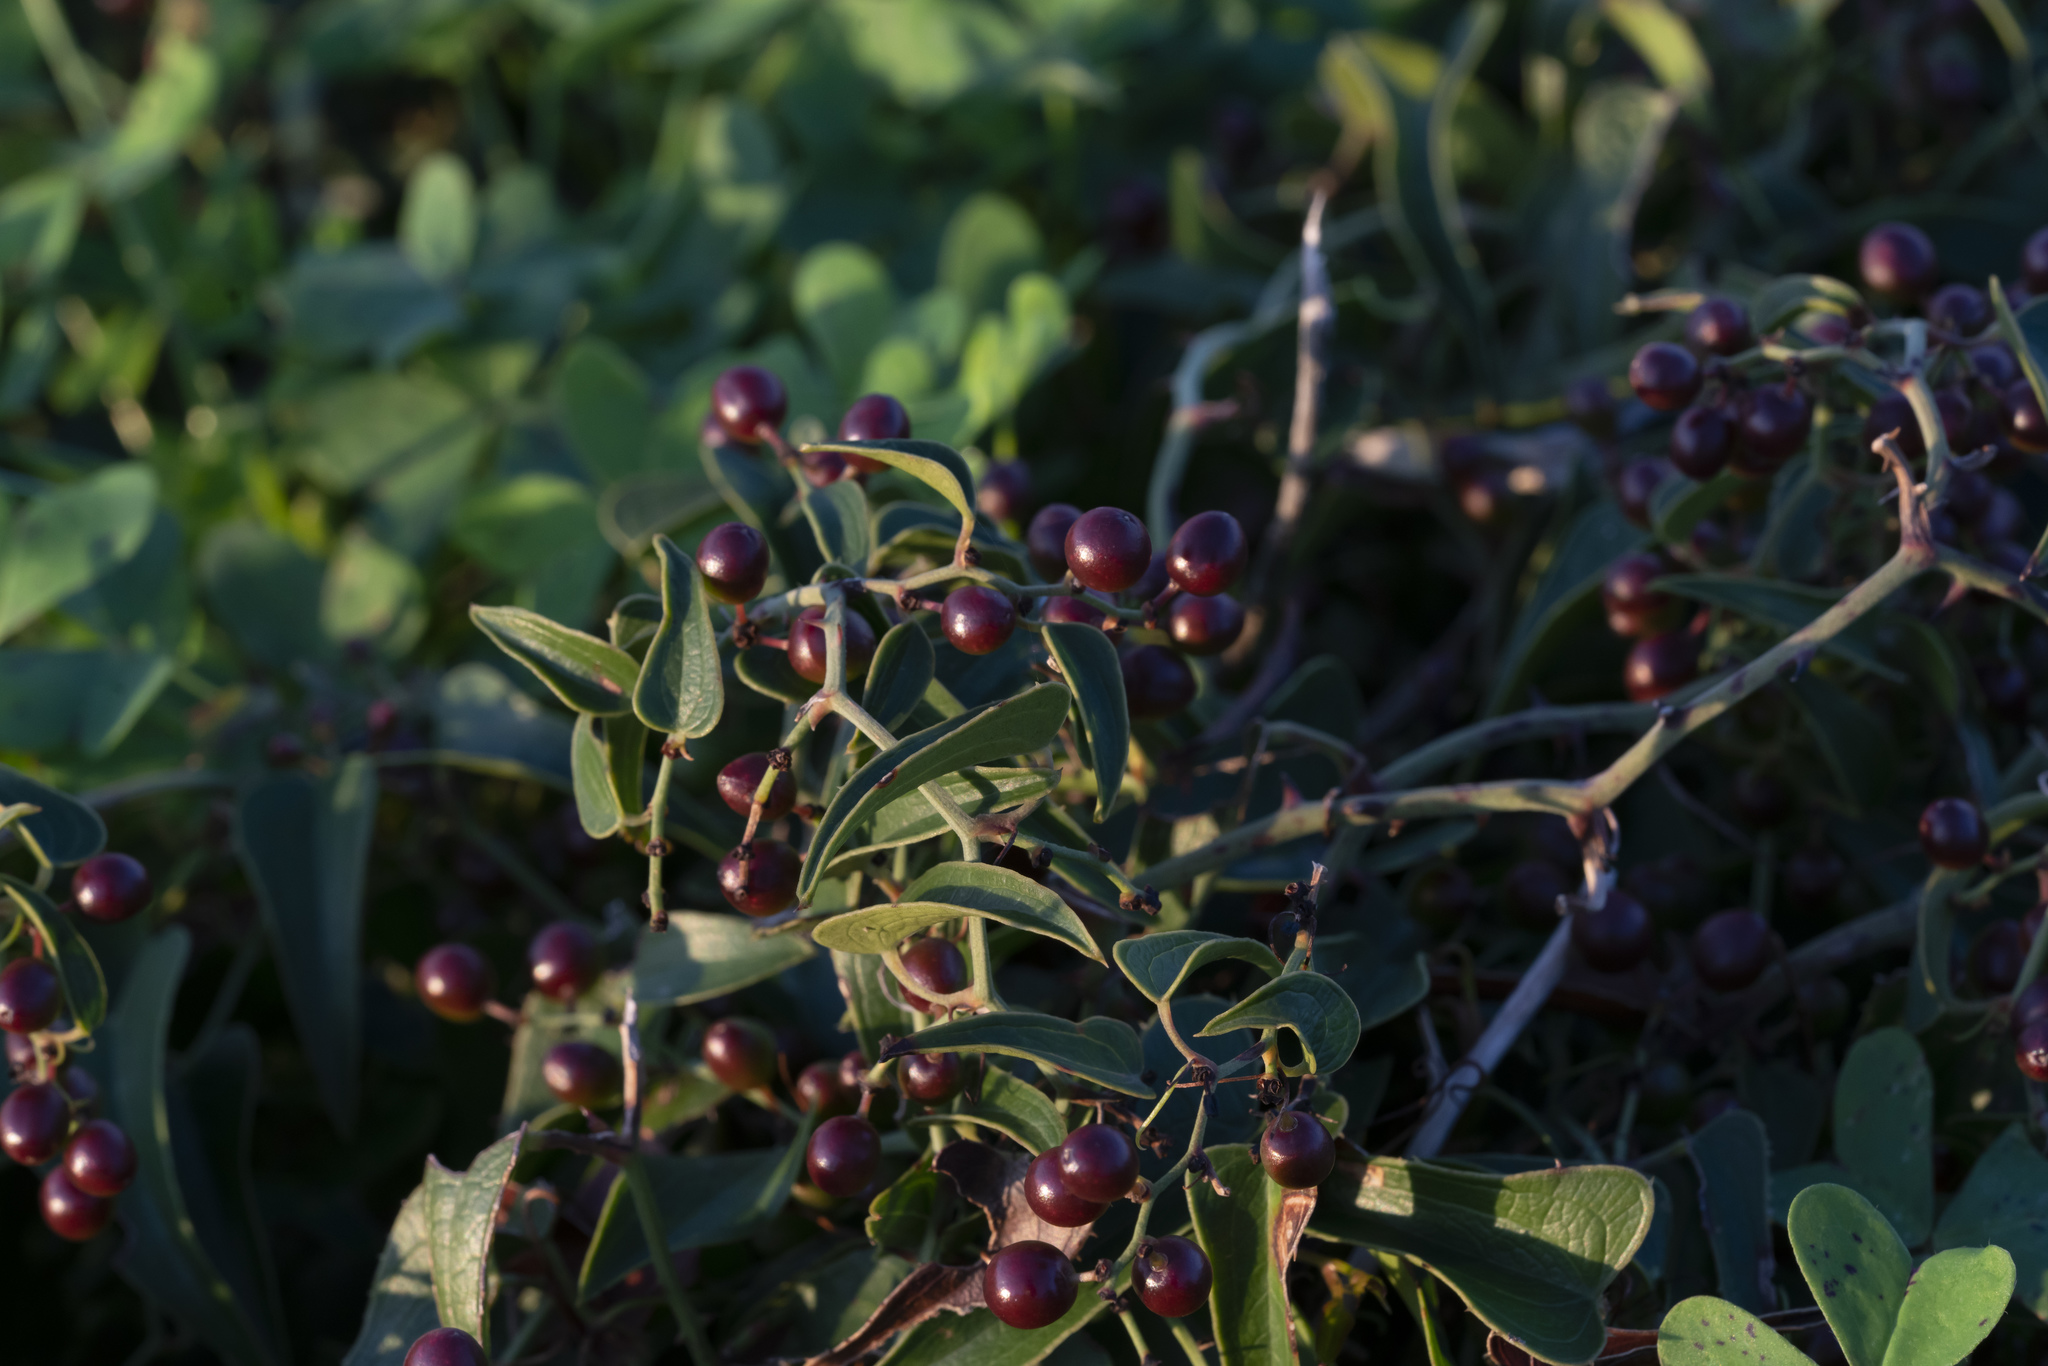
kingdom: Plantae
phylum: Tracheophyta
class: Liliopsida
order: Liliales
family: Smilacaceae
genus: Smilax
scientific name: Smilax aspera
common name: Common smilax
